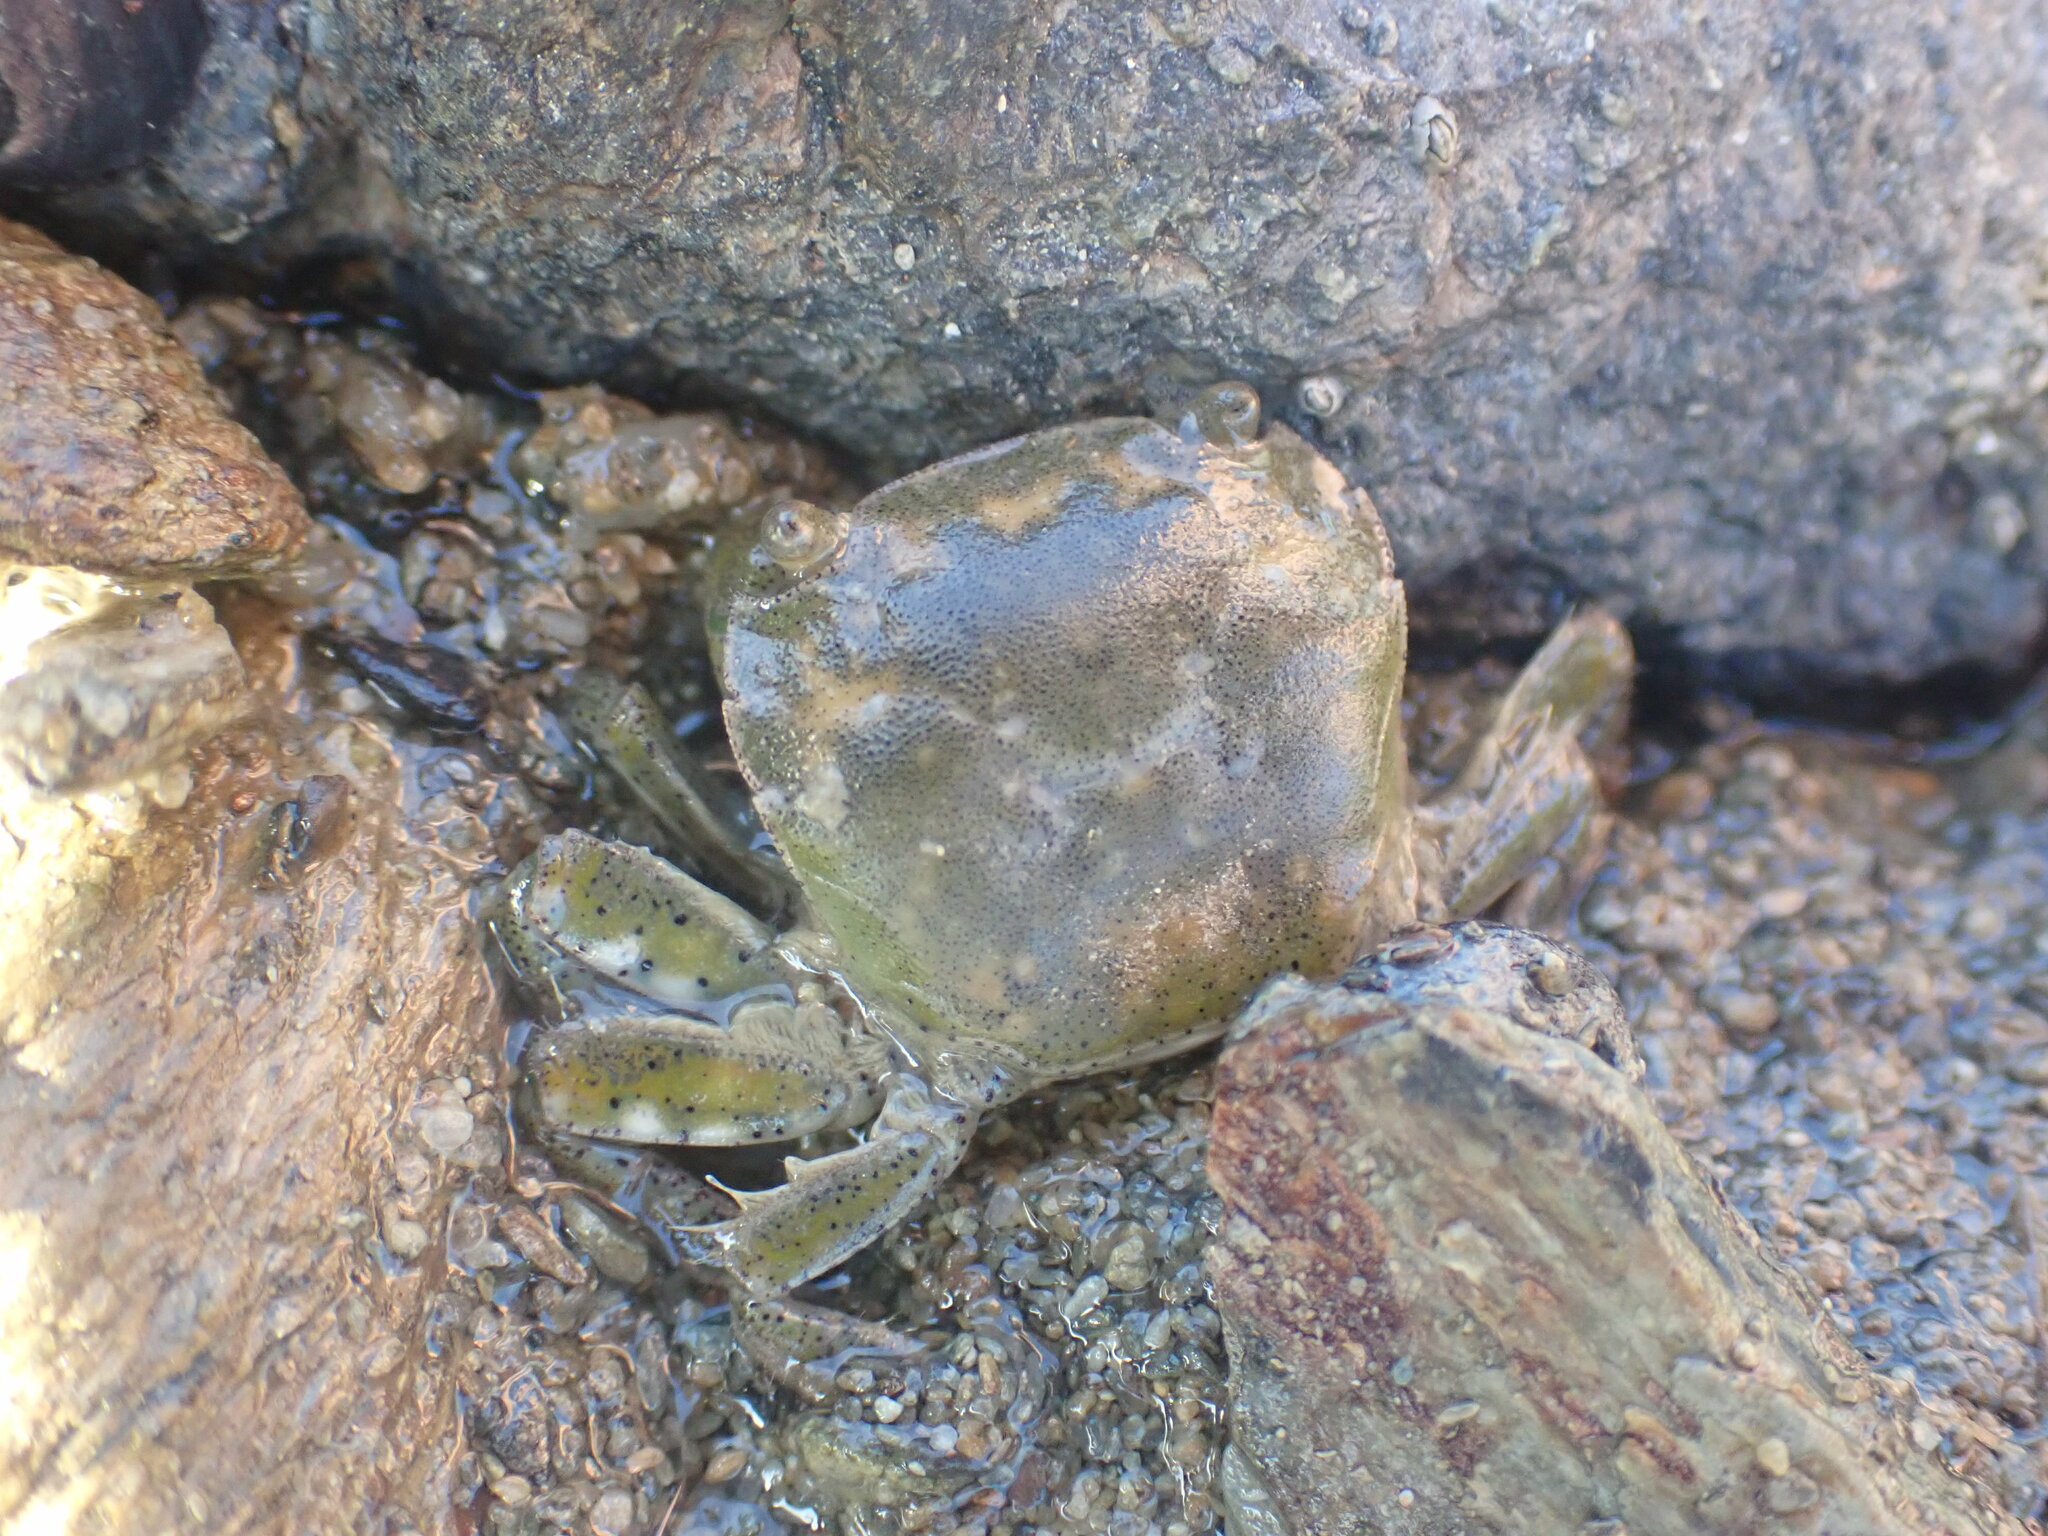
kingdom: Animalia
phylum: Arthropoda
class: Malacostraca
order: Decapoda
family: Varunidae
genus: Hemigrapsus
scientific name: Hemigrapsus crenulatus
